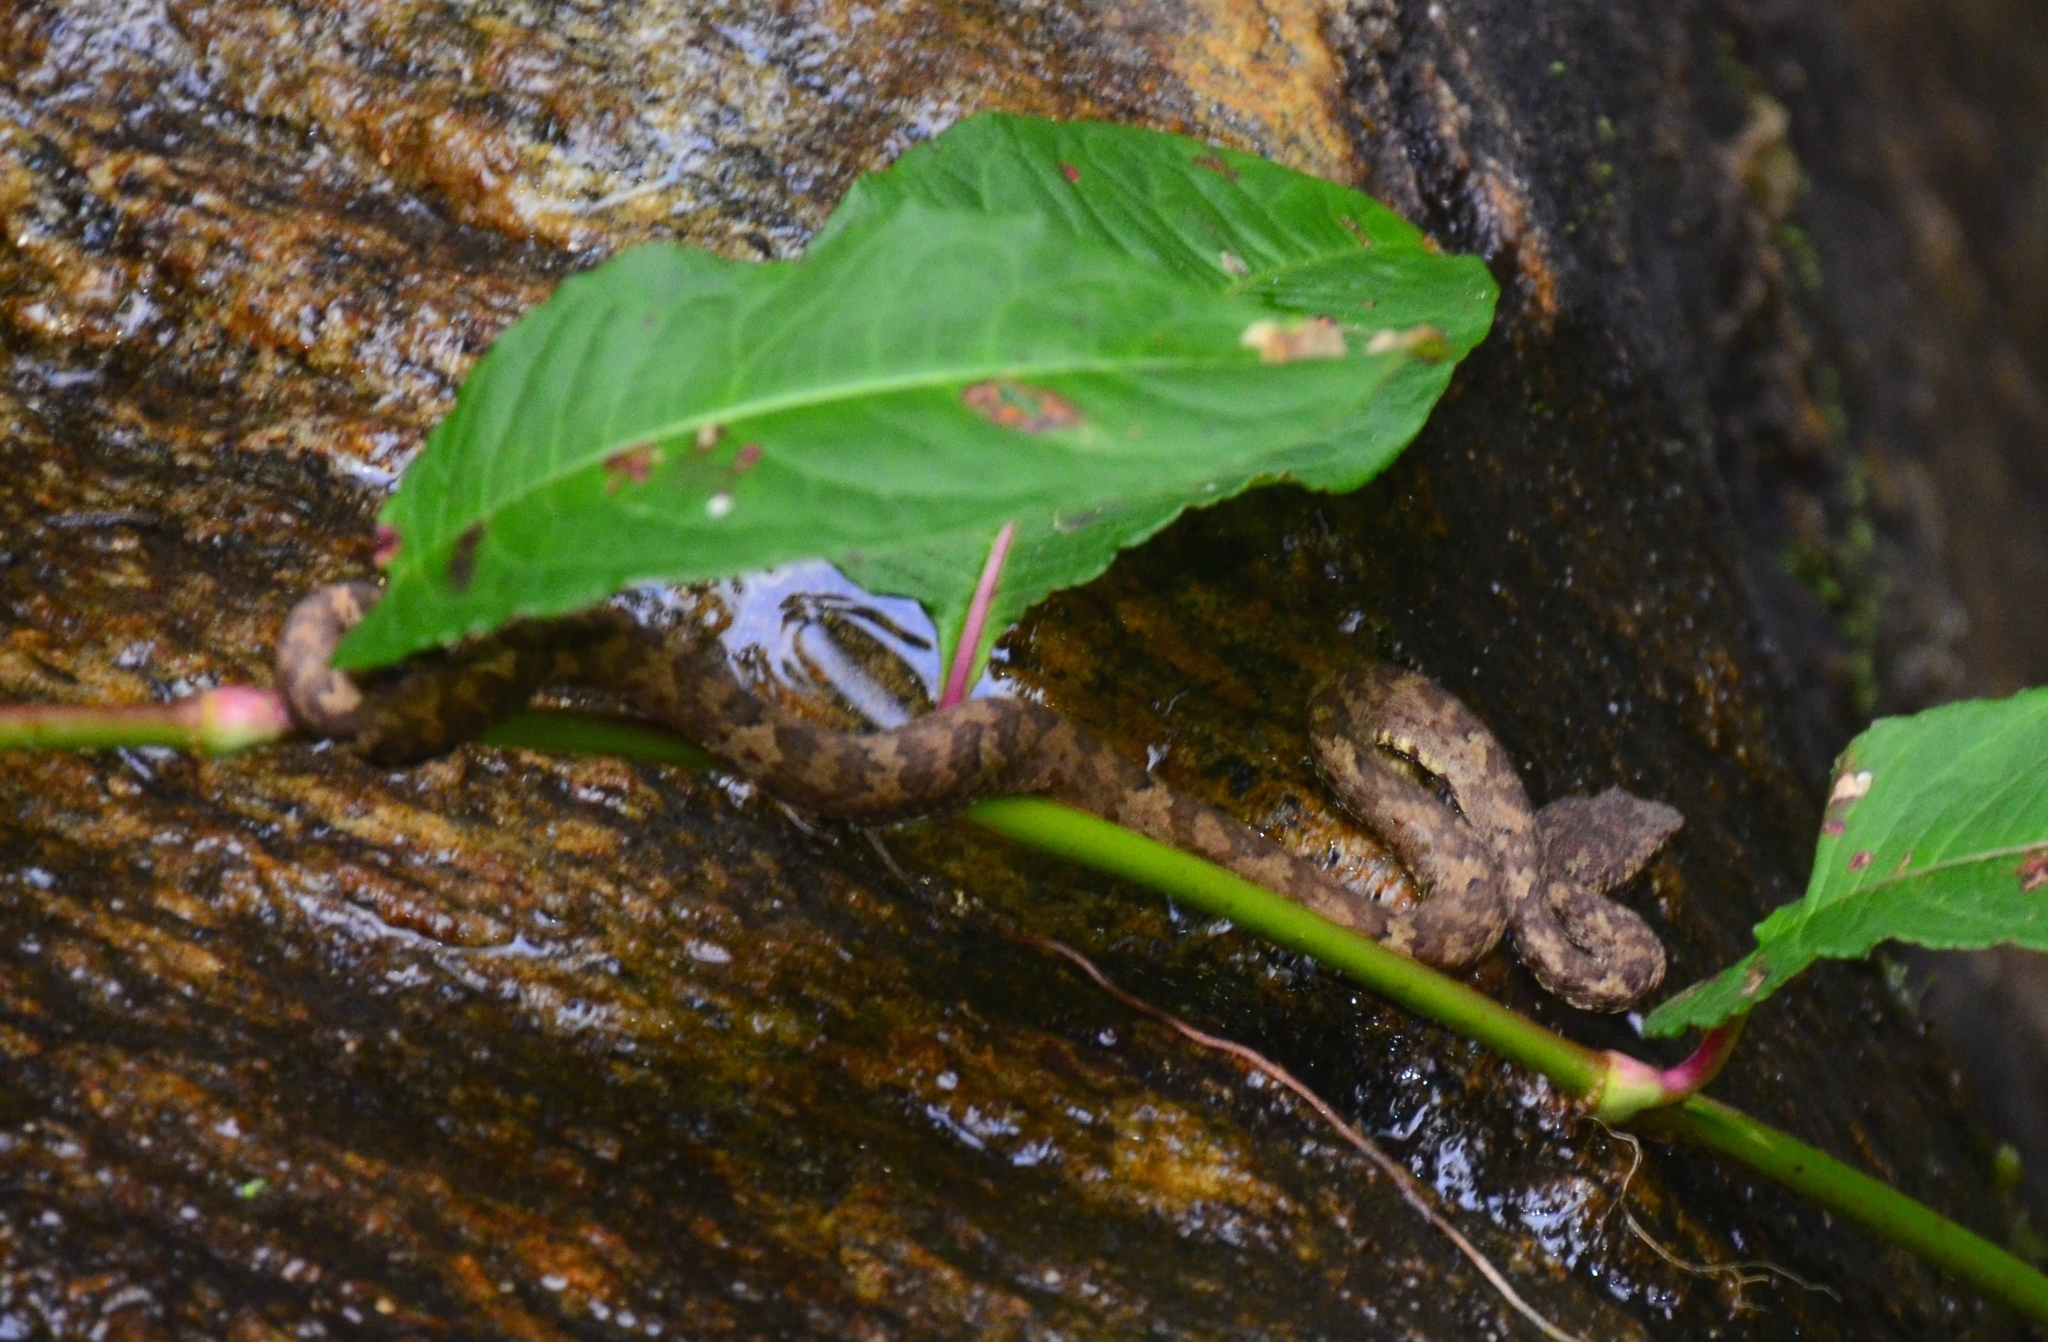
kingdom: Animalia
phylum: Chordata
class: Squamata
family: Viperidae
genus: Craspedocephalus
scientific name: Craspedocephalus anamallensis
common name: Malabarian pit viper
